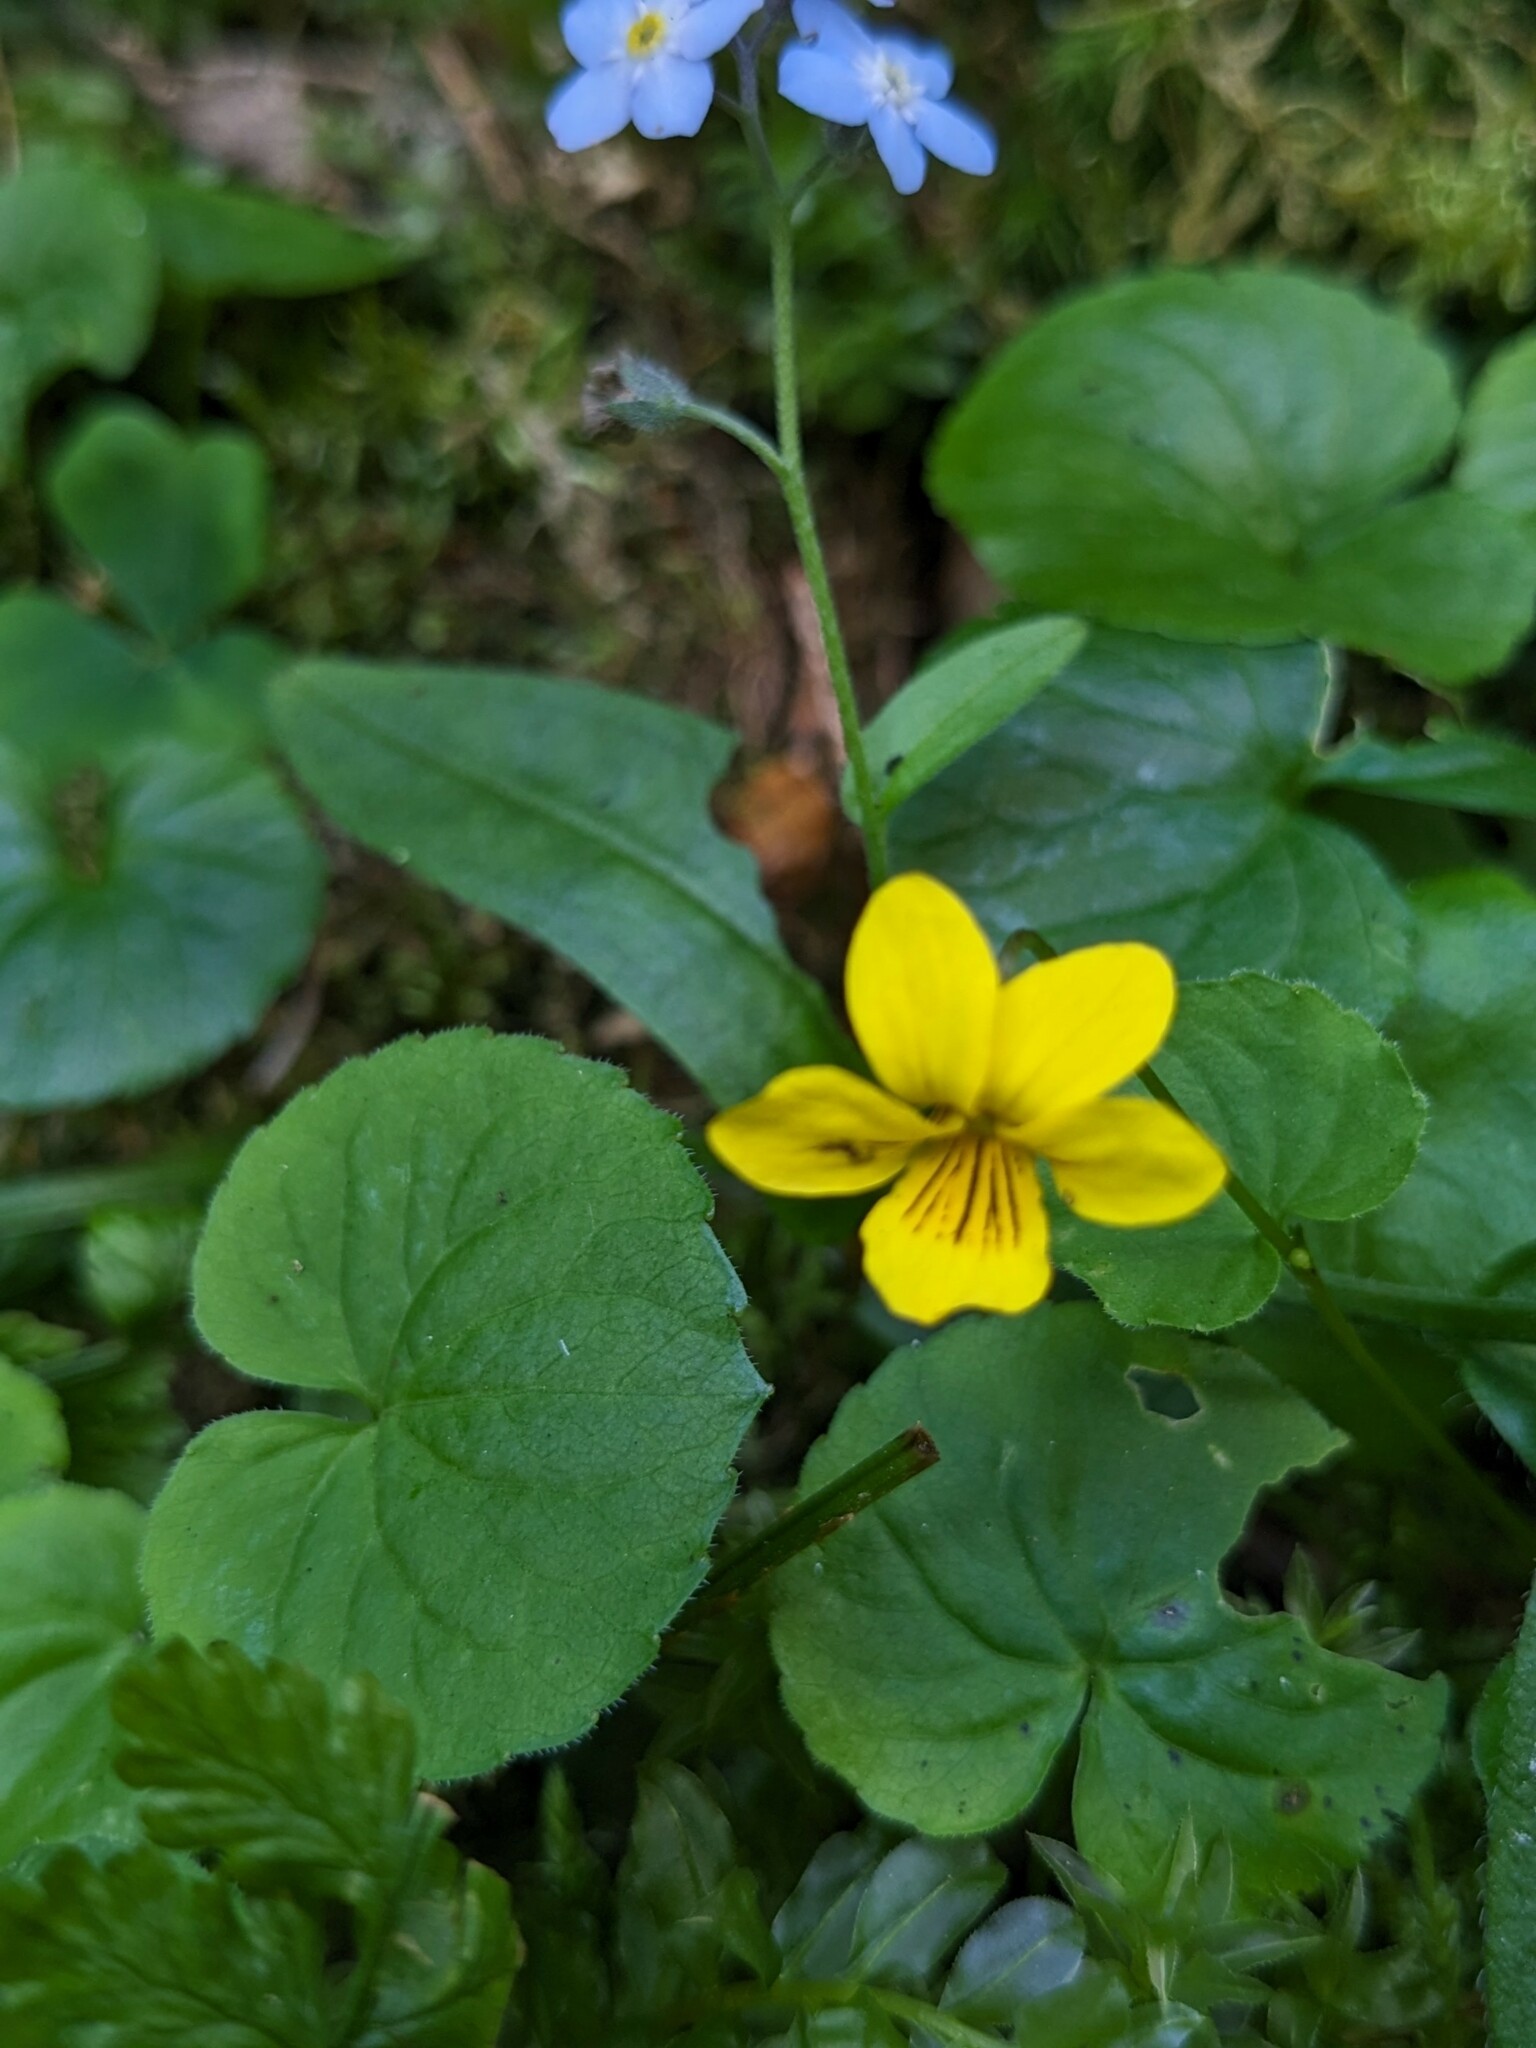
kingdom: Plantae
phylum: Tracheophyta
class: Magnoliopsida
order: Malpighiales
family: Violaceae
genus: Viola
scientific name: Viola biflora
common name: Alpine yellow violet
